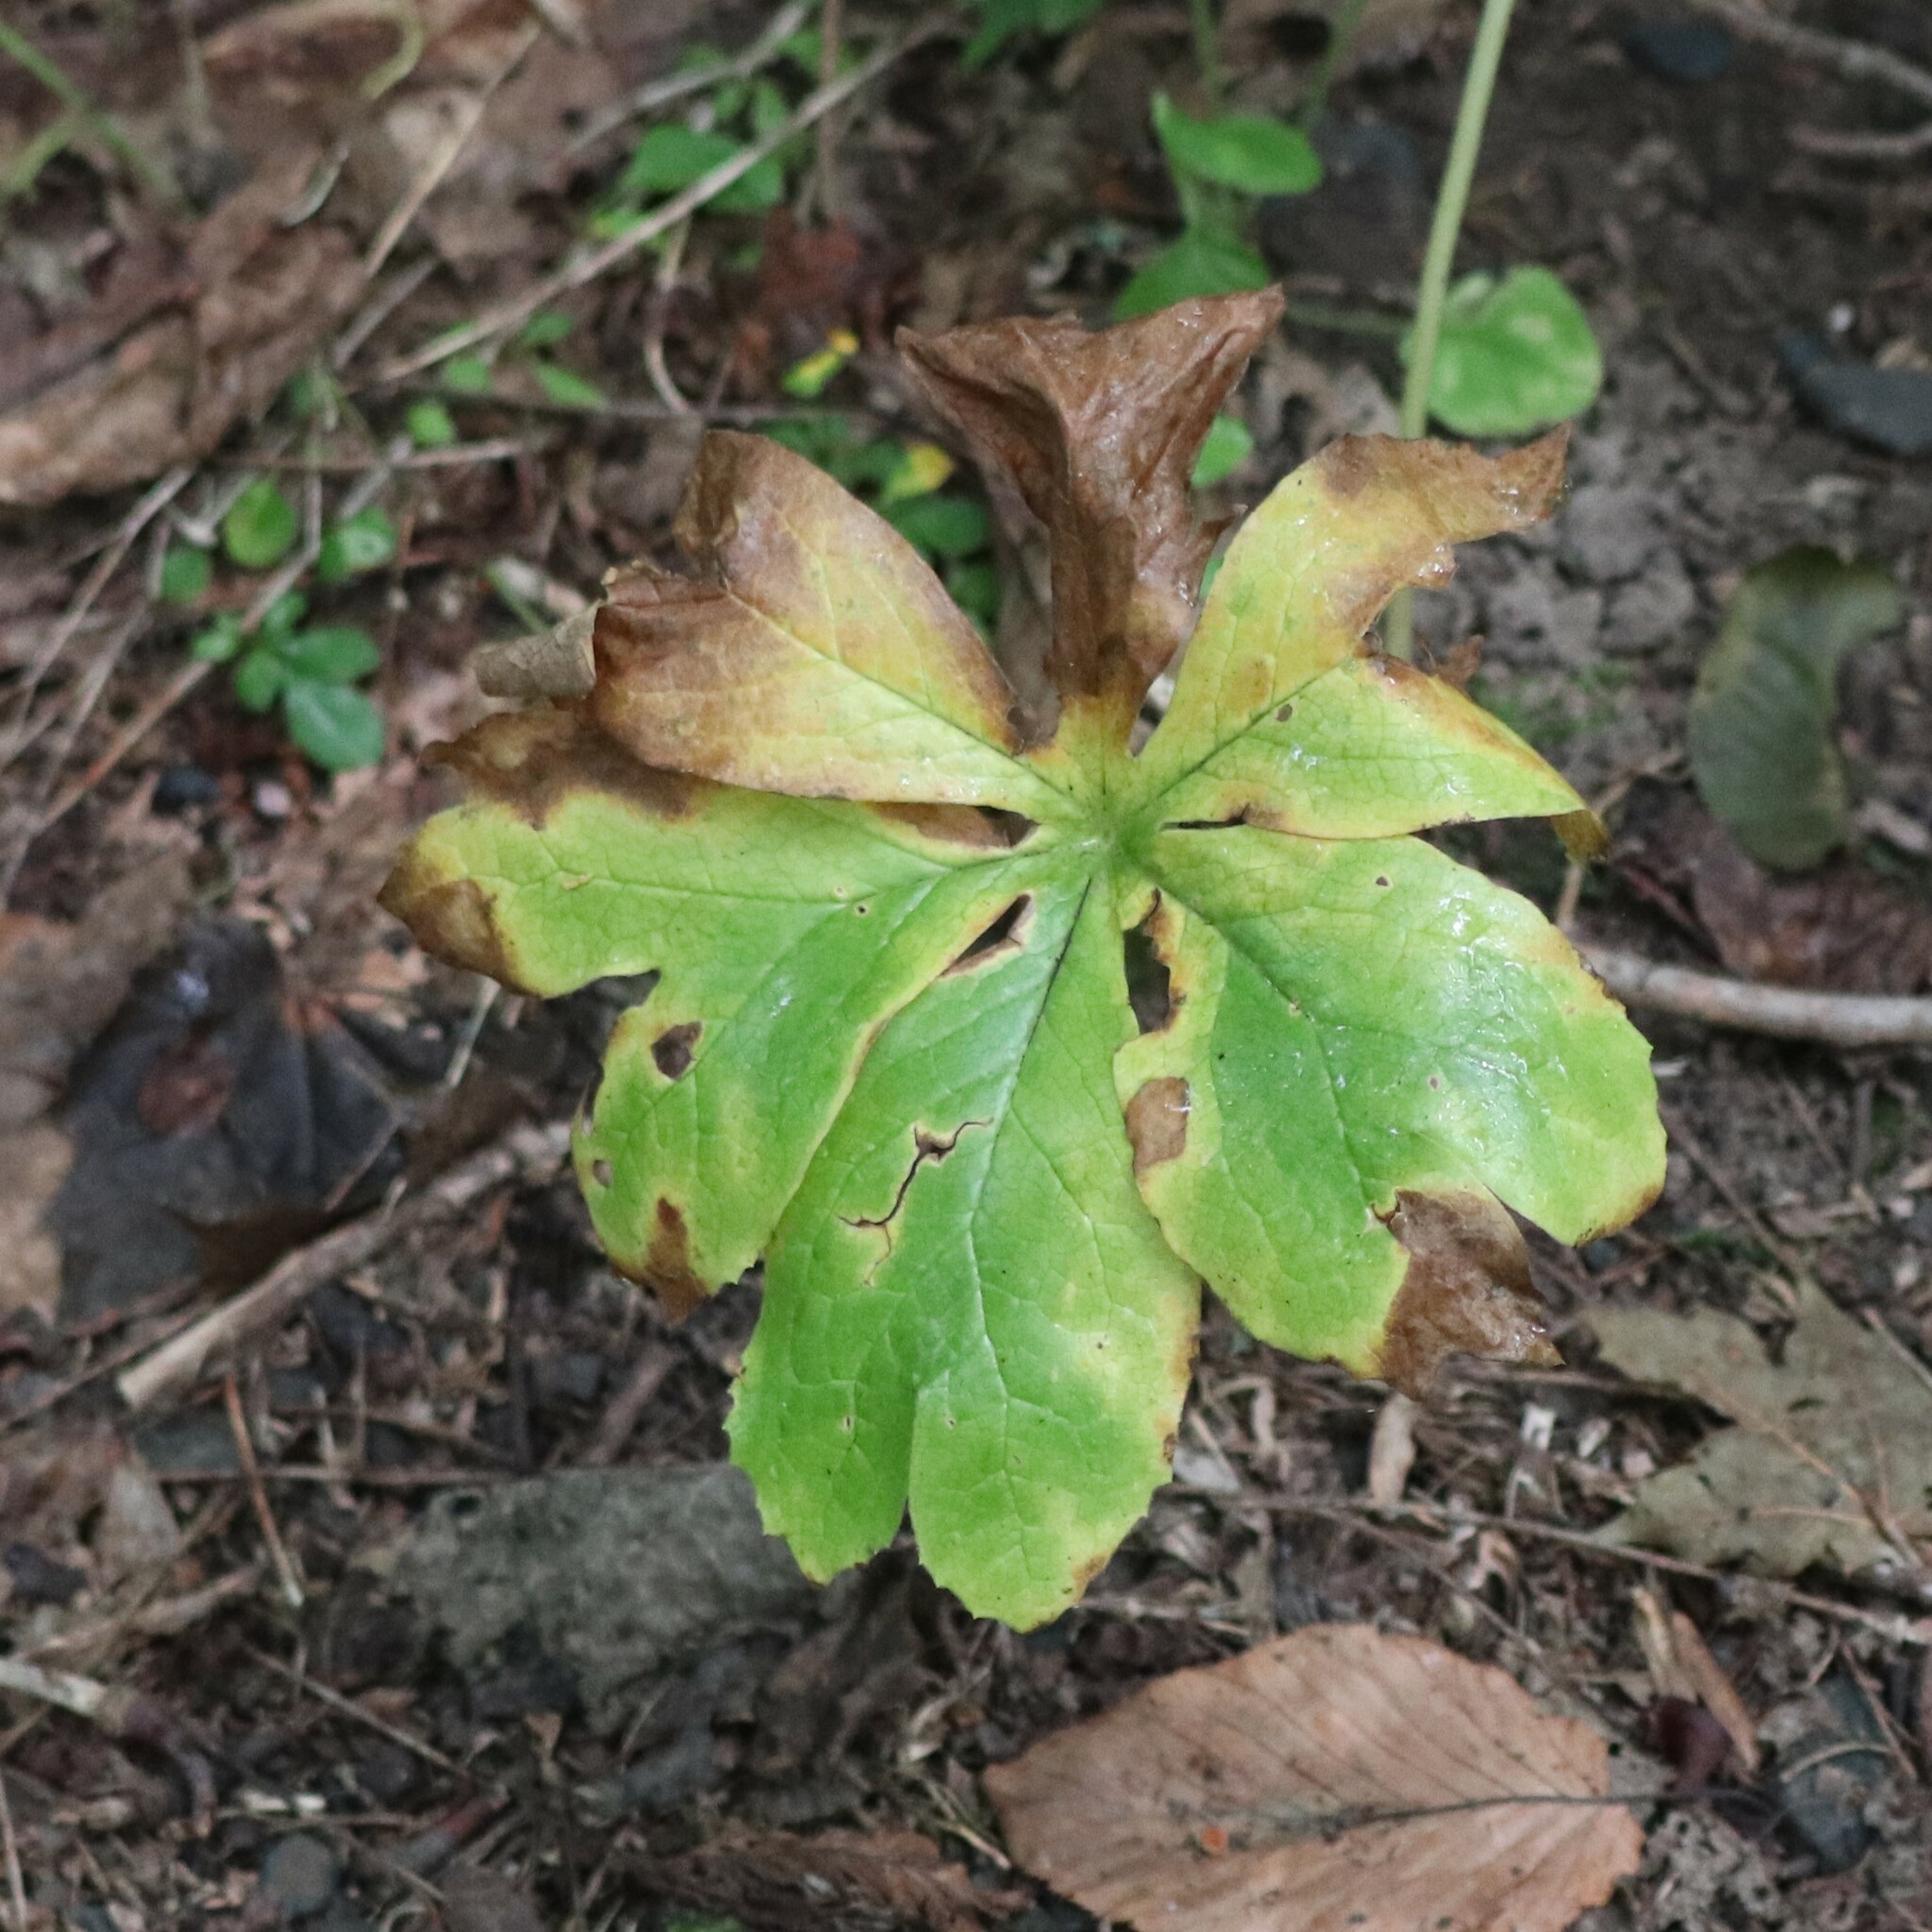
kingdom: Plantae
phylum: Tracheophyta
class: Magnoliopsida
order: Ranunculales
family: Berberidaceae
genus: Podophyllum
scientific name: Podophyllum peltatum
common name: Wild mandrake
